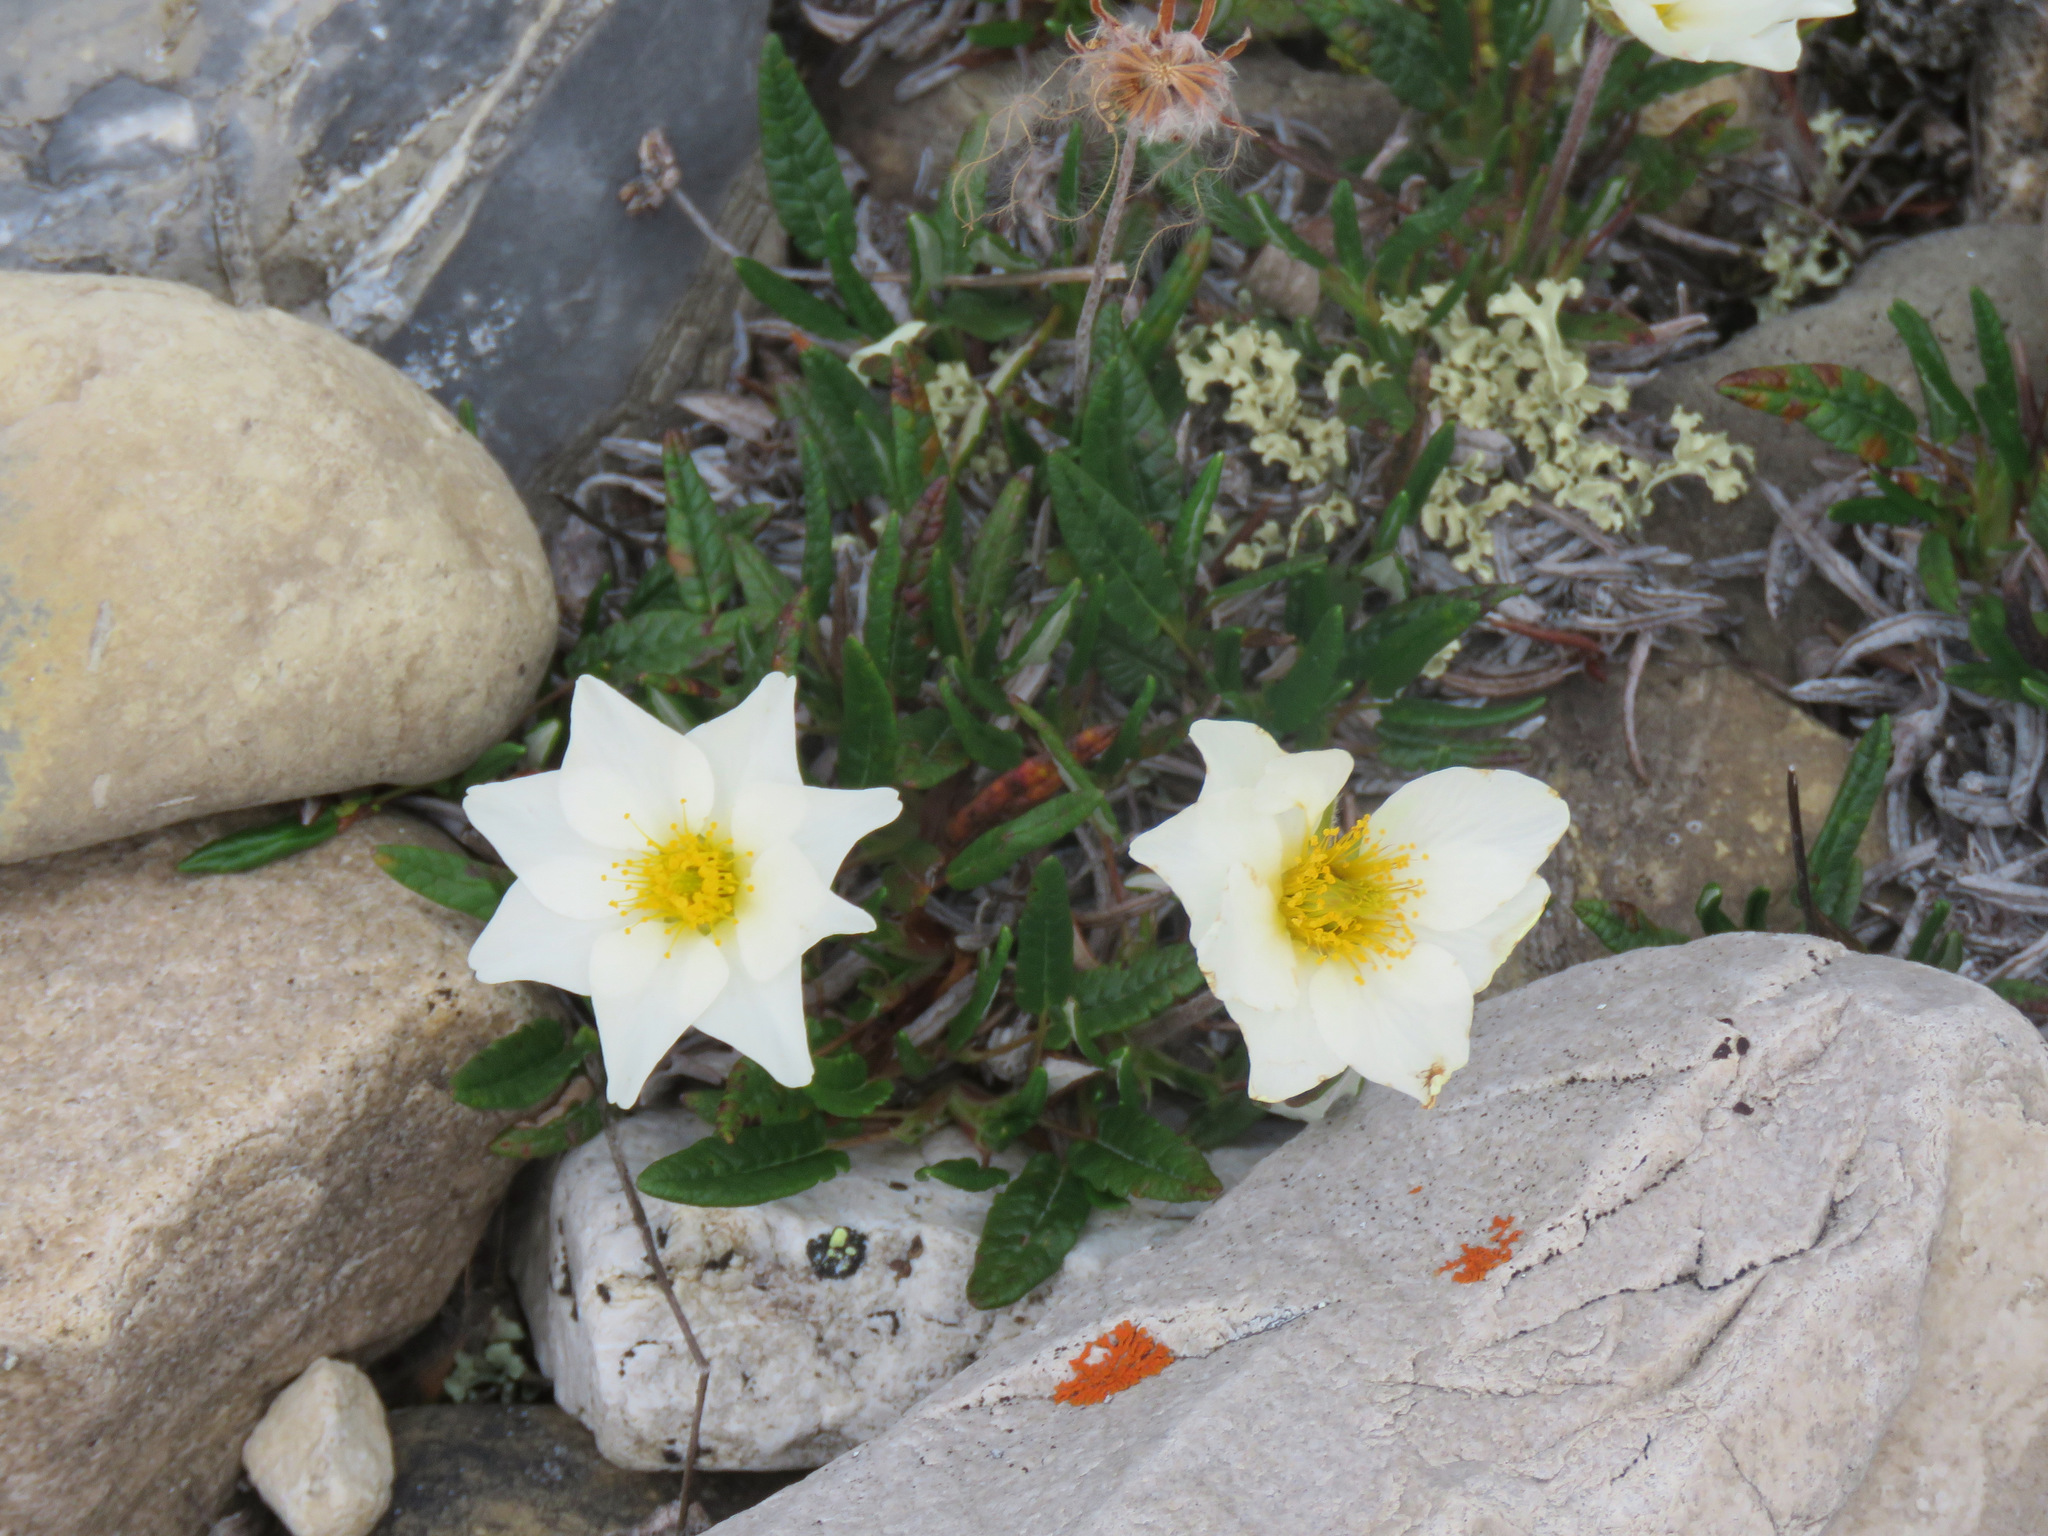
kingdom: Plantae
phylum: Tracheophyta
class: Magnoliopsida
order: Rosales
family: Rosaceae
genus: Dryas
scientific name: Dryas integrifolia
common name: Entire-leaved mountain avens
